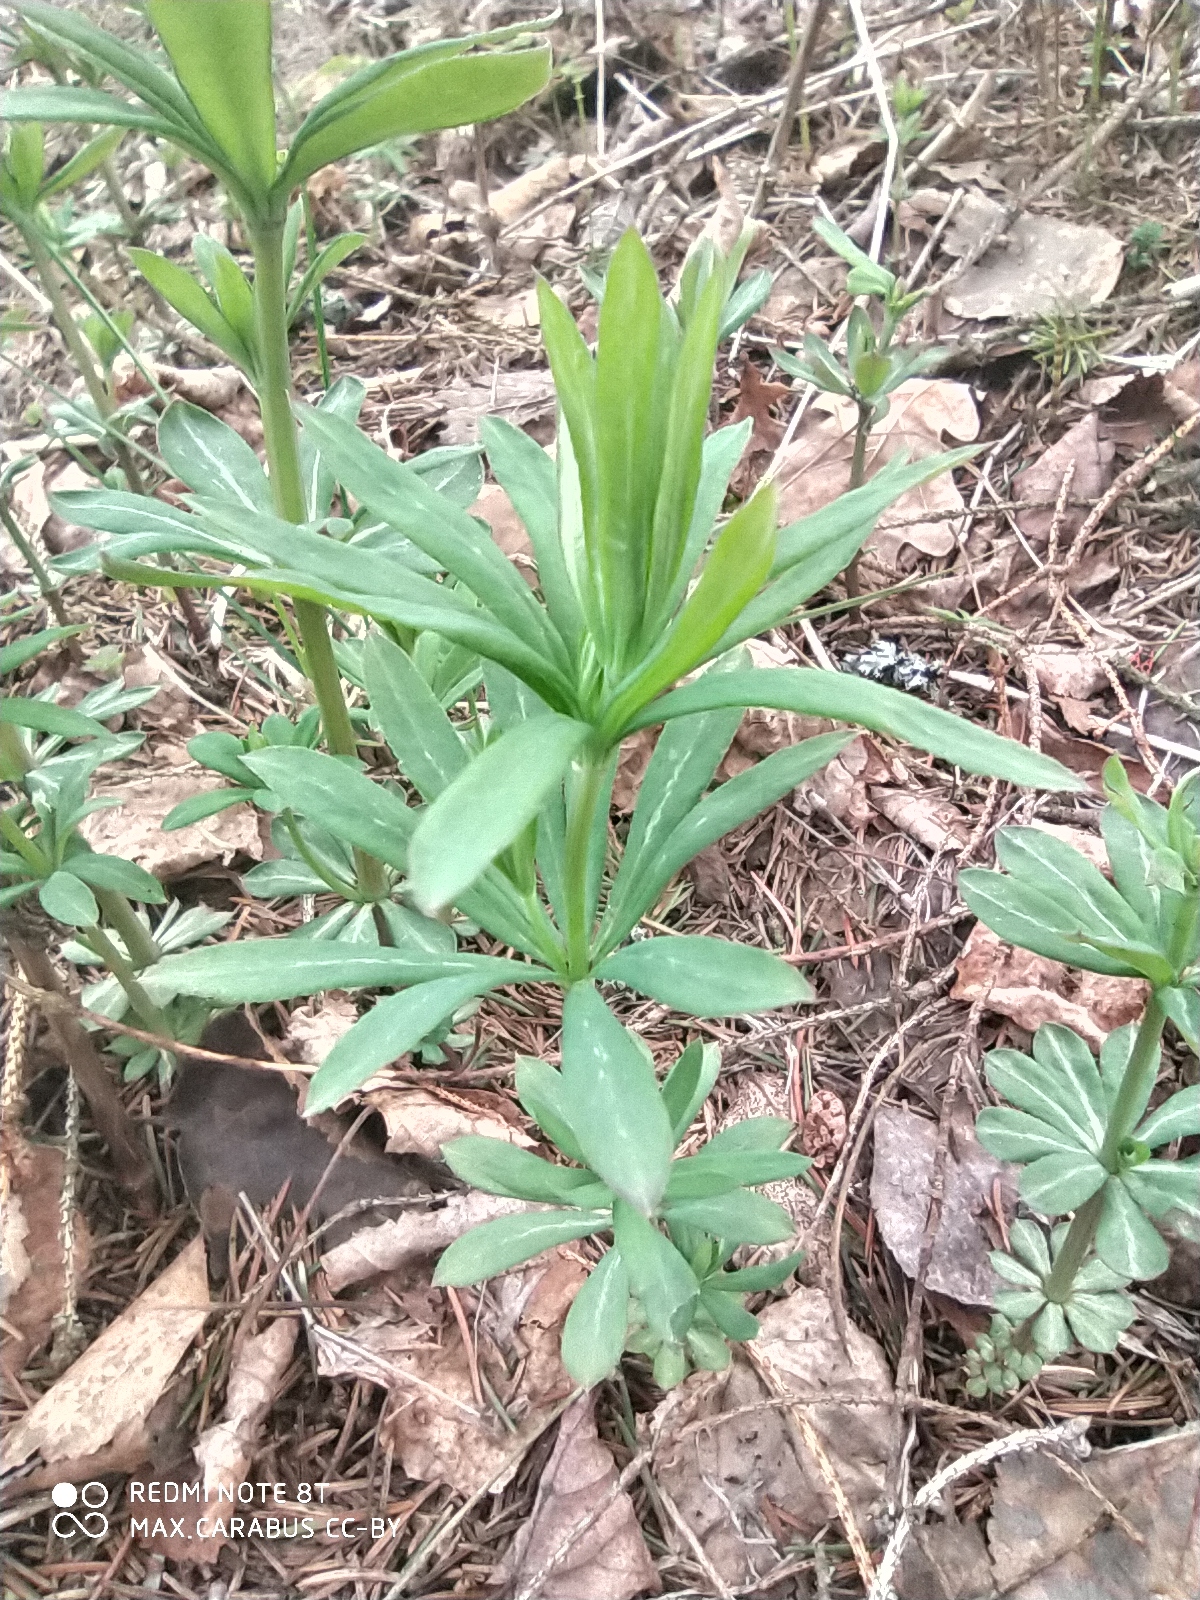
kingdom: Plantae
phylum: Tracheophyta
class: Magnoliopsida
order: Gentianales
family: Rubiaceae
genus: Galium
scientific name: Galium intermedium
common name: Bedstraw
